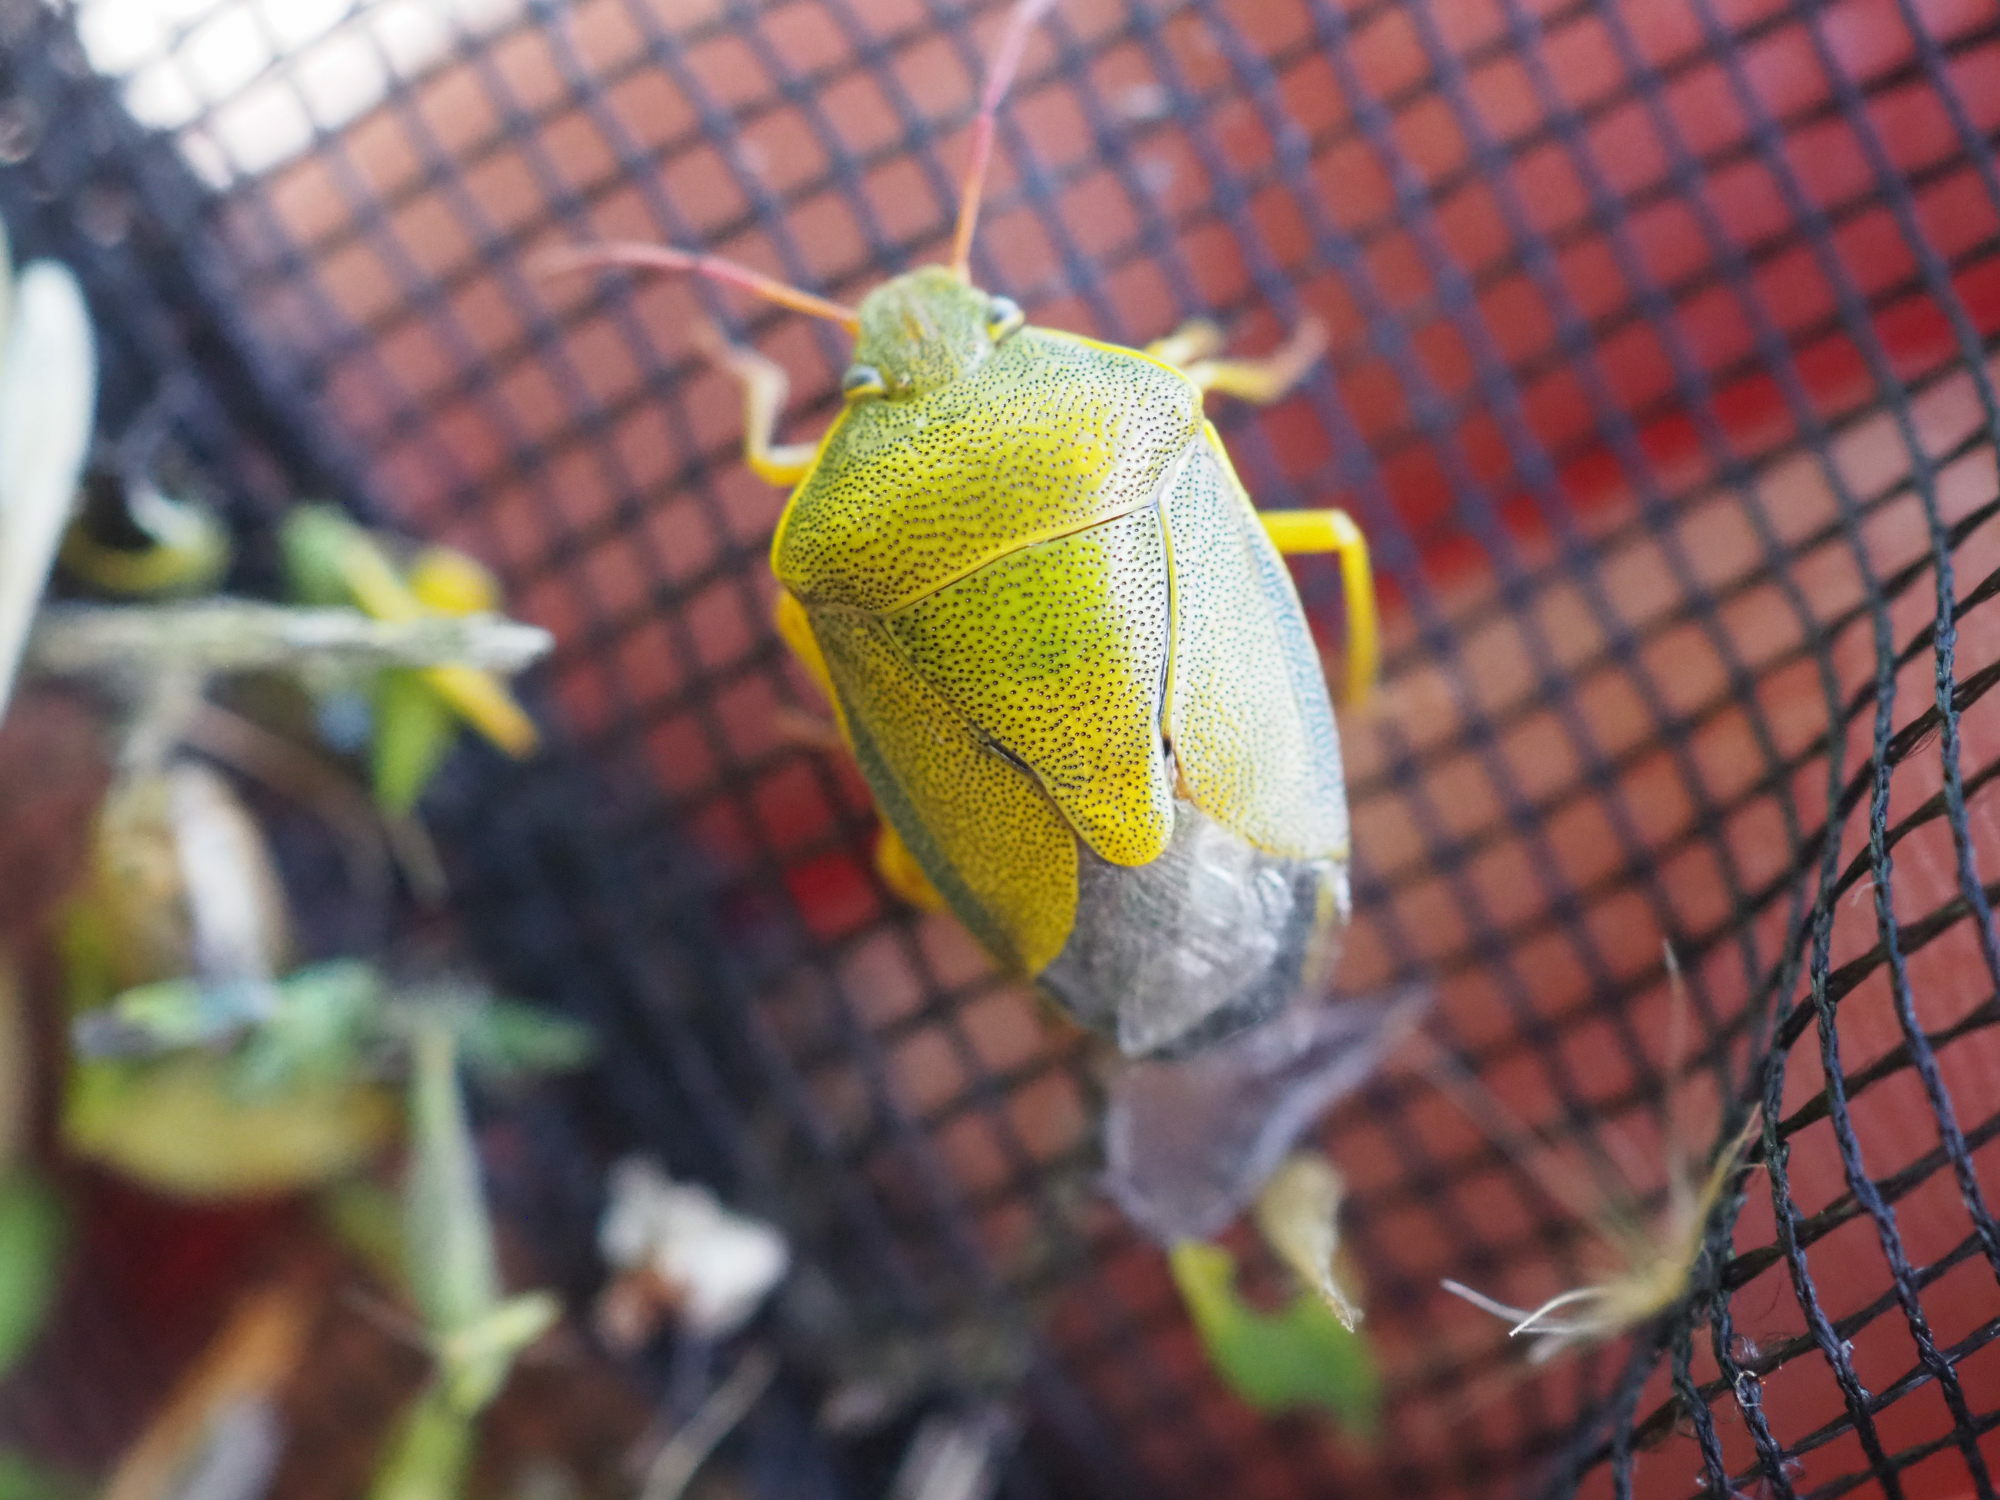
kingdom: Animalia
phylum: Arthropoda
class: Insecta
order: Hemiptera
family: Pentatomidae
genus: Piezodorus
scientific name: Piezodorus lituratus
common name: Stink bug
